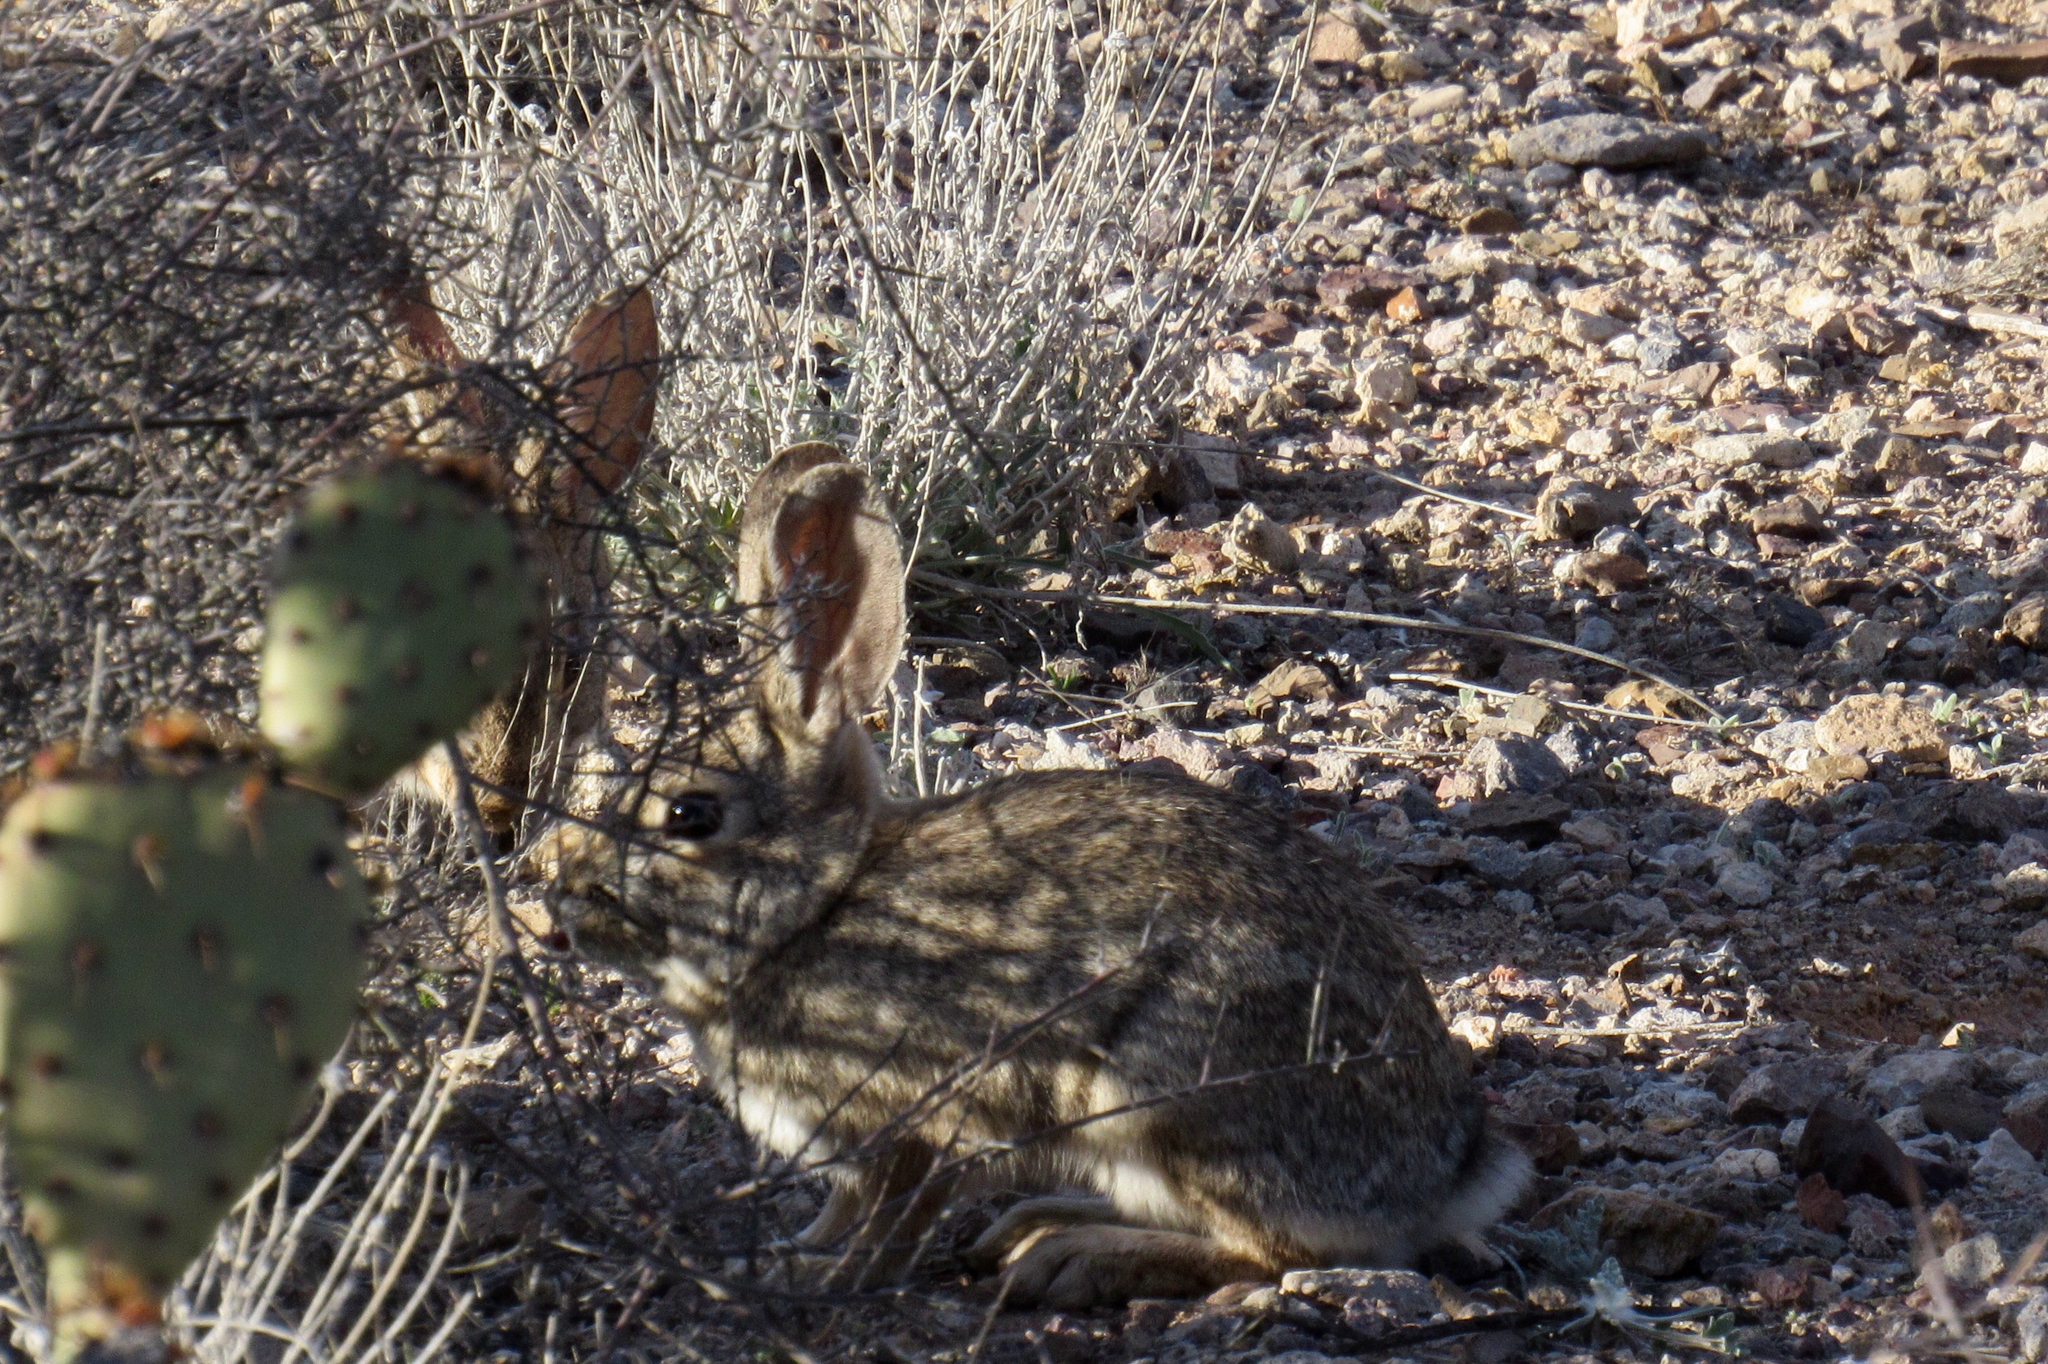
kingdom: Animalia
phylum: Chordata
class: Mammalia
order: Lagomorpha
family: Leporidae
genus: Sylvilagus
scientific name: Sylvilagus audubonii
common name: Desert cottontail
